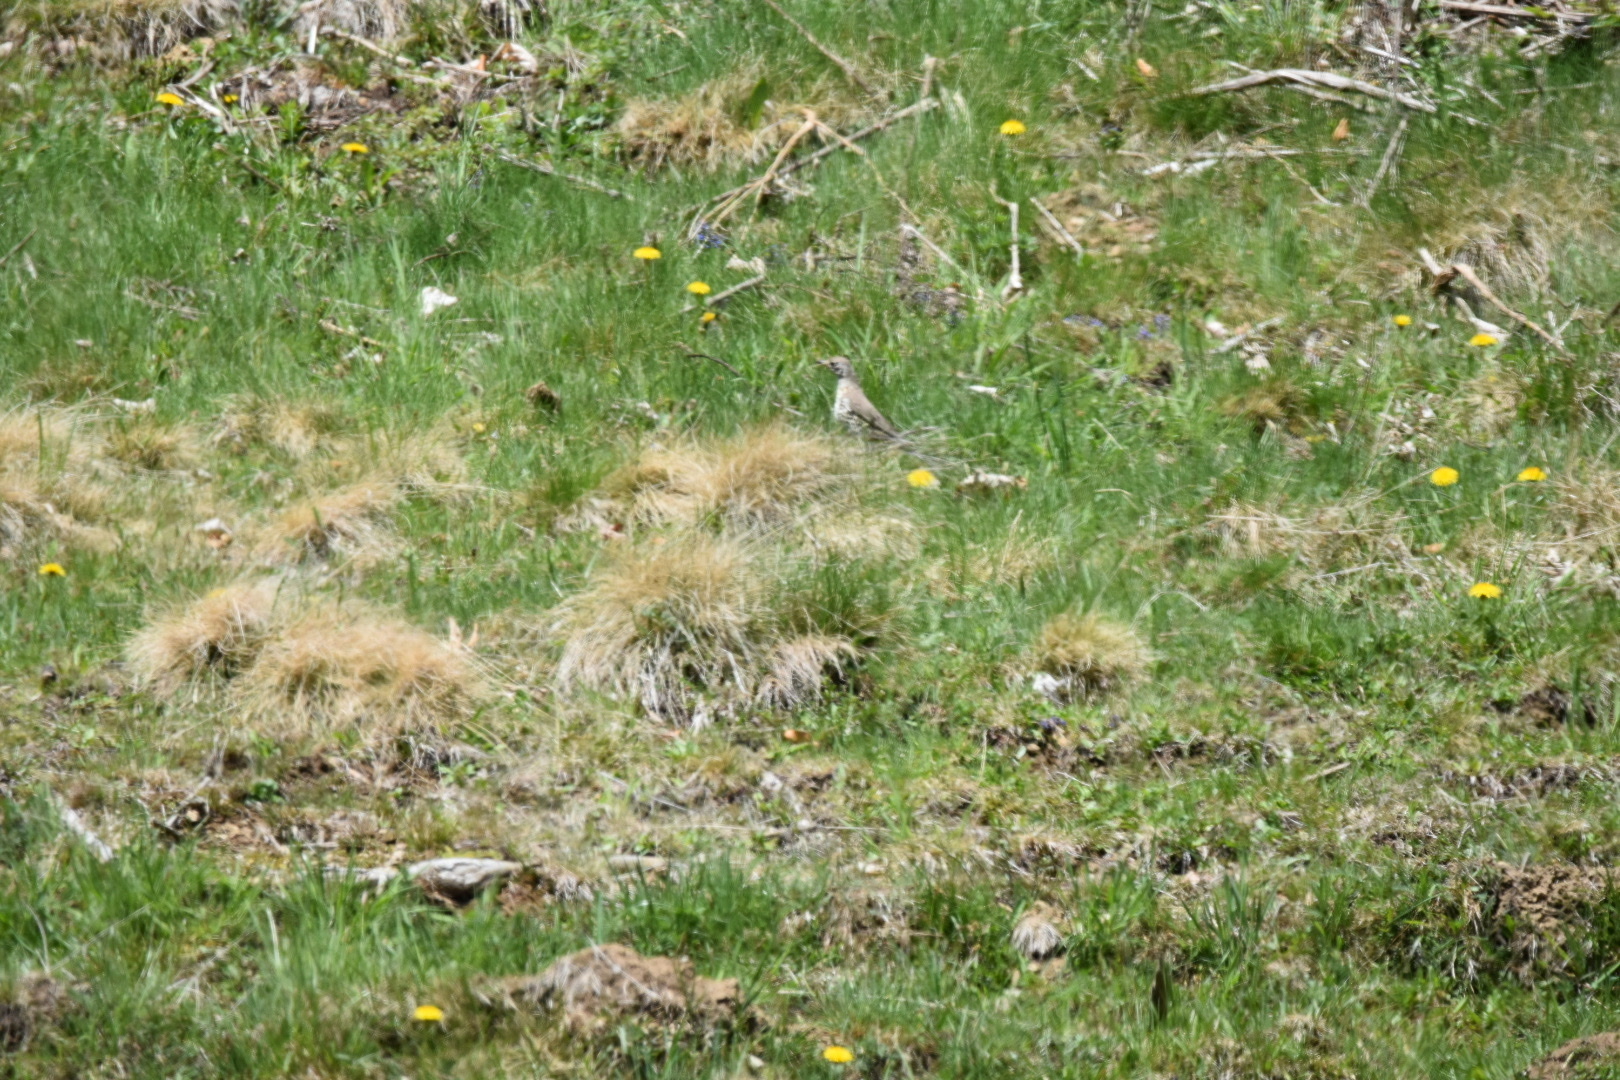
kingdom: Animalia
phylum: Chordata
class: Aves
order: Passeriformes
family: Turdidae
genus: Turdus
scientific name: Turdus viscivorus
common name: Mistle thrush
